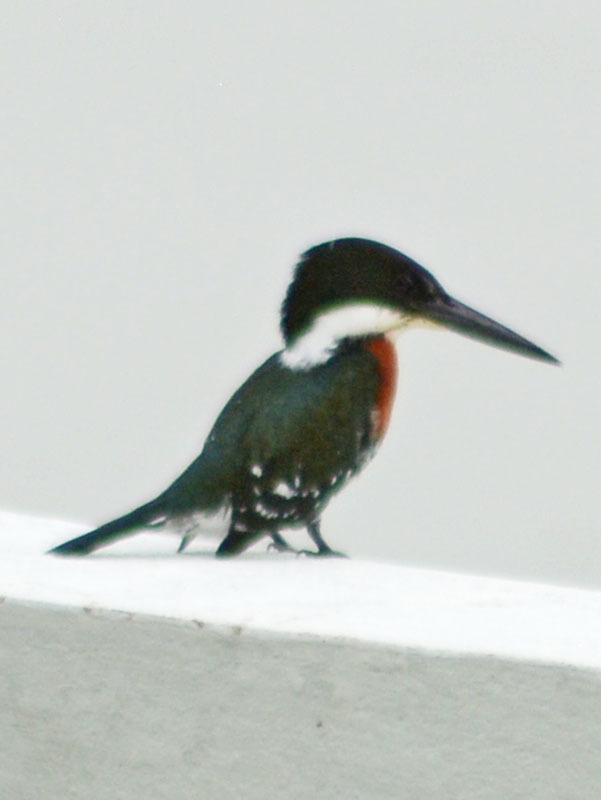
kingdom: Animalia
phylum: Chordata
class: Aves
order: Coraciiformes
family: Alcedinidae
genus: Chloroceryle
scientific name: Chloroceryle americana
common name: Green kingfisher
